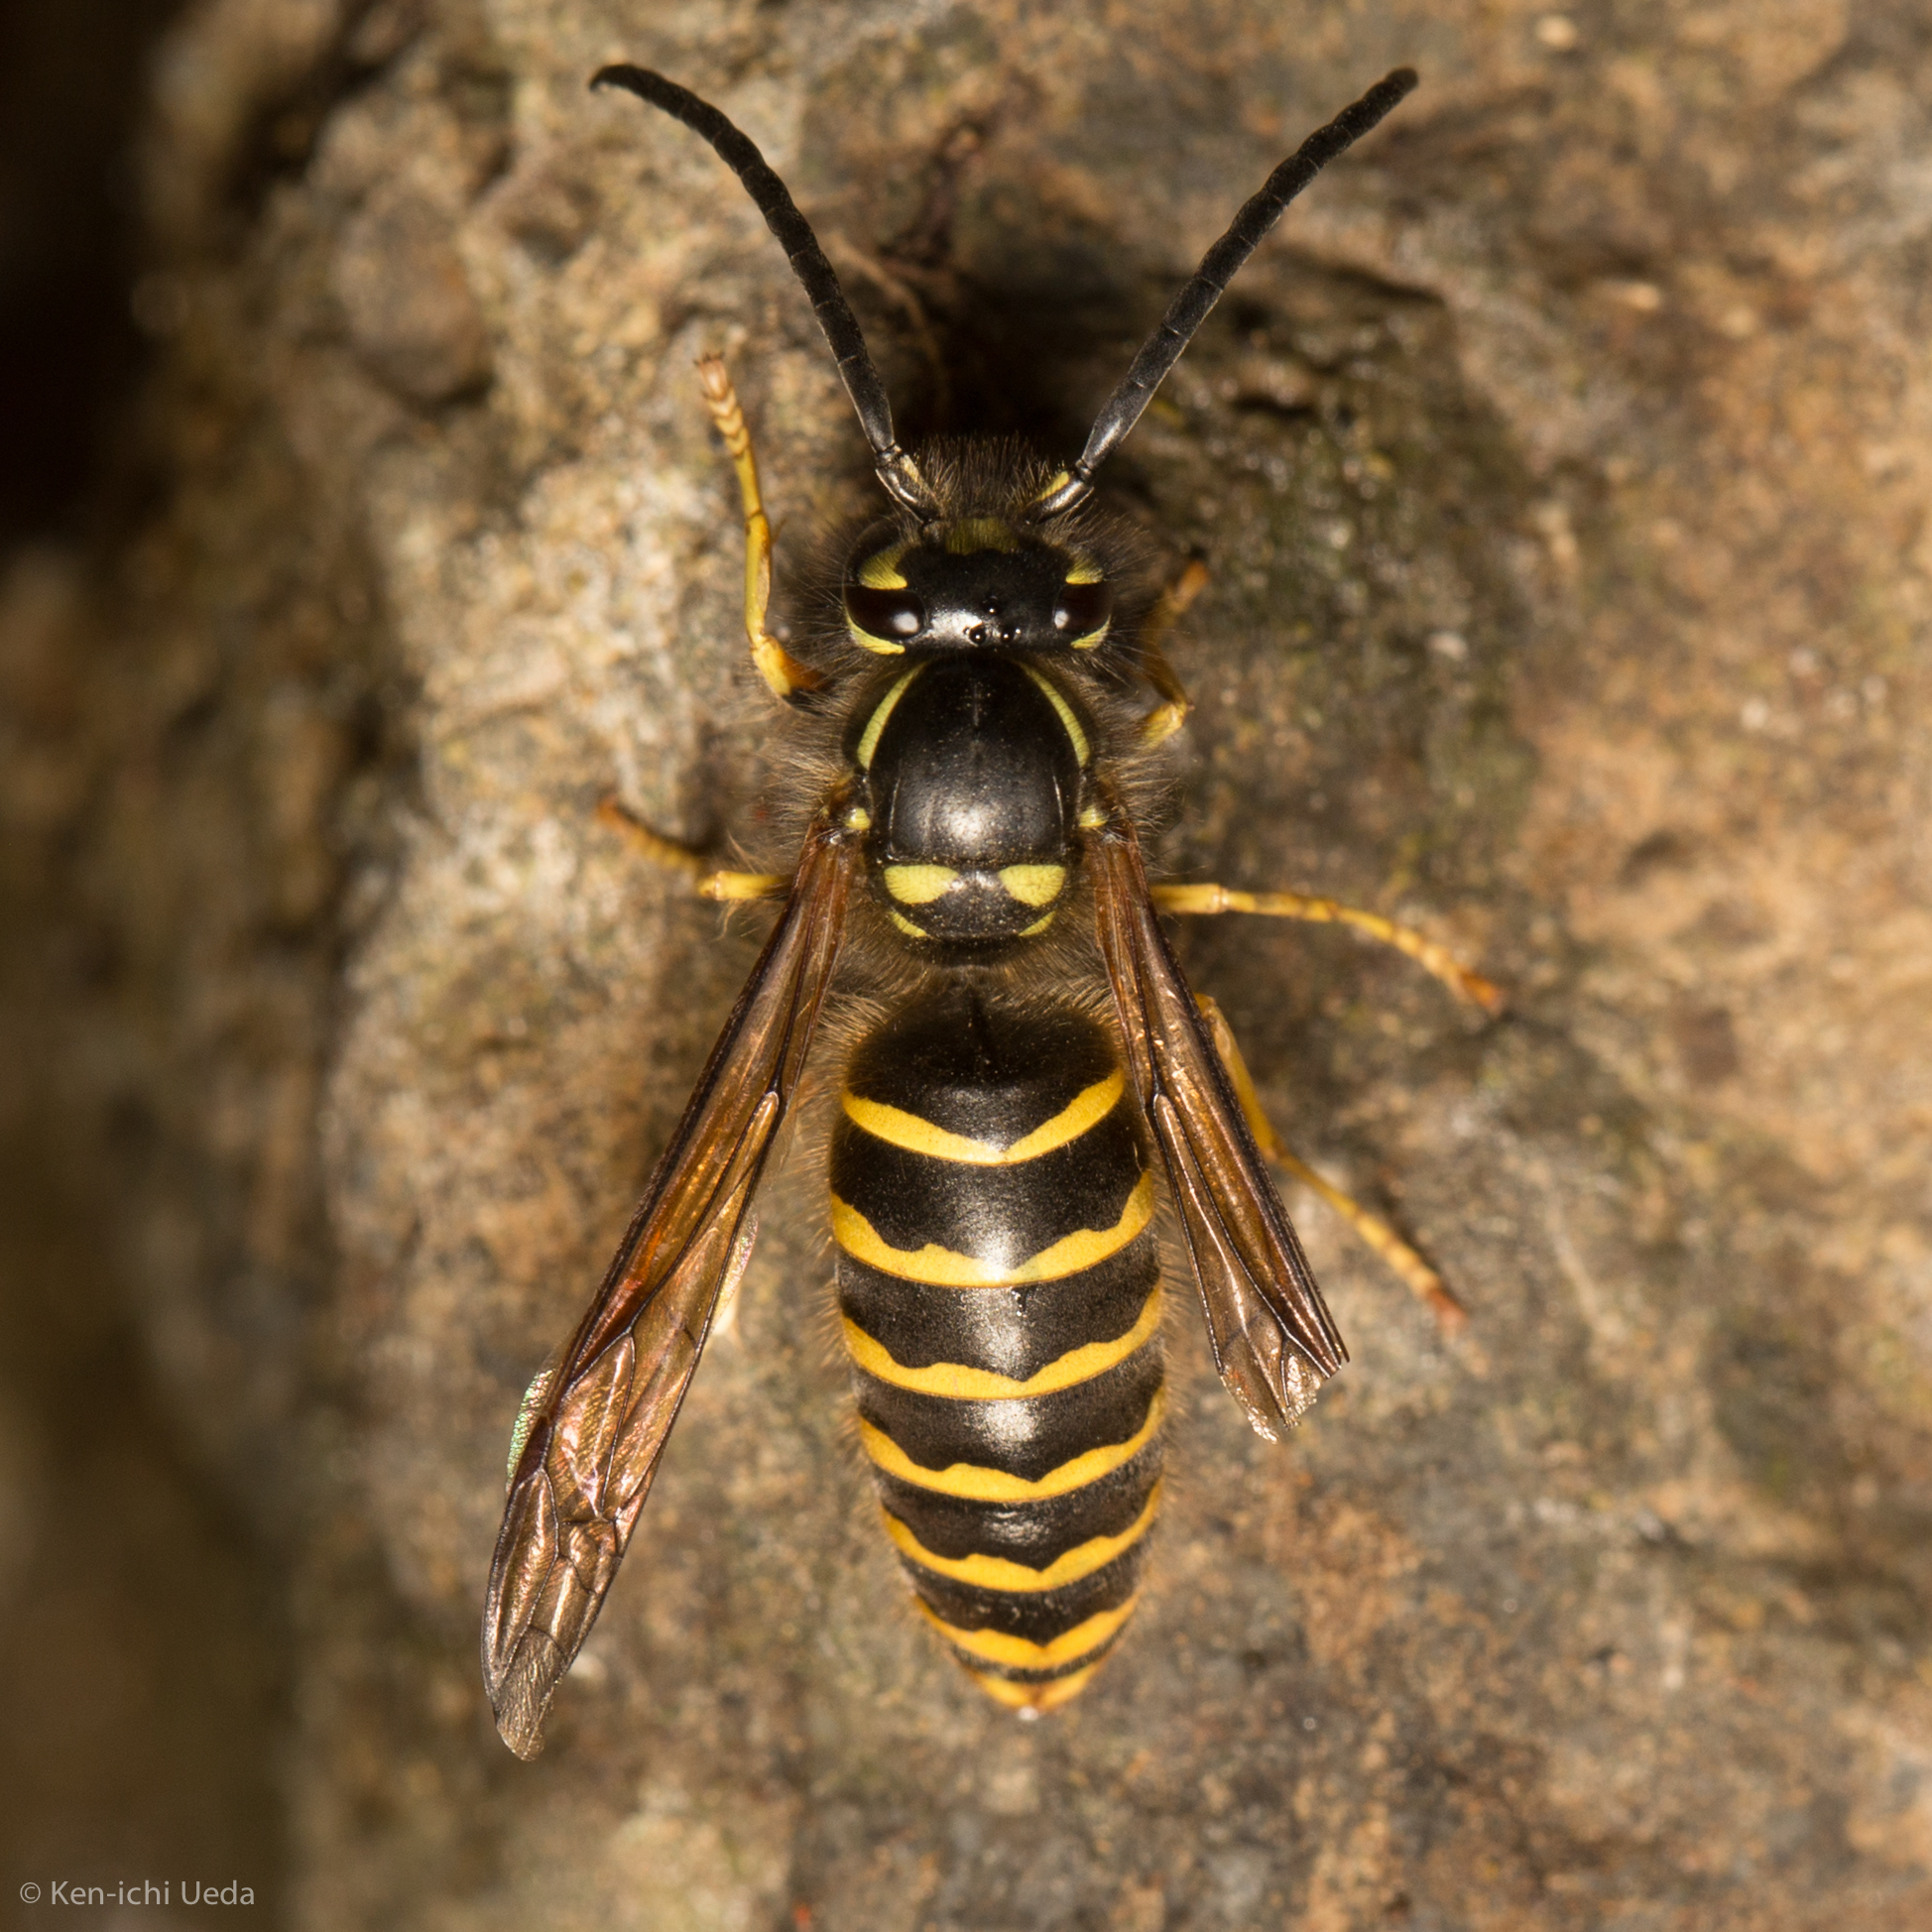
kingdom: Animalia
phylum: Arthropoda
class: Insecta
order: Hymenoptera
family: Vespidae
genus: Vespula
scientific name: Vespula alascensis
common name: Alaska yellowjacket
